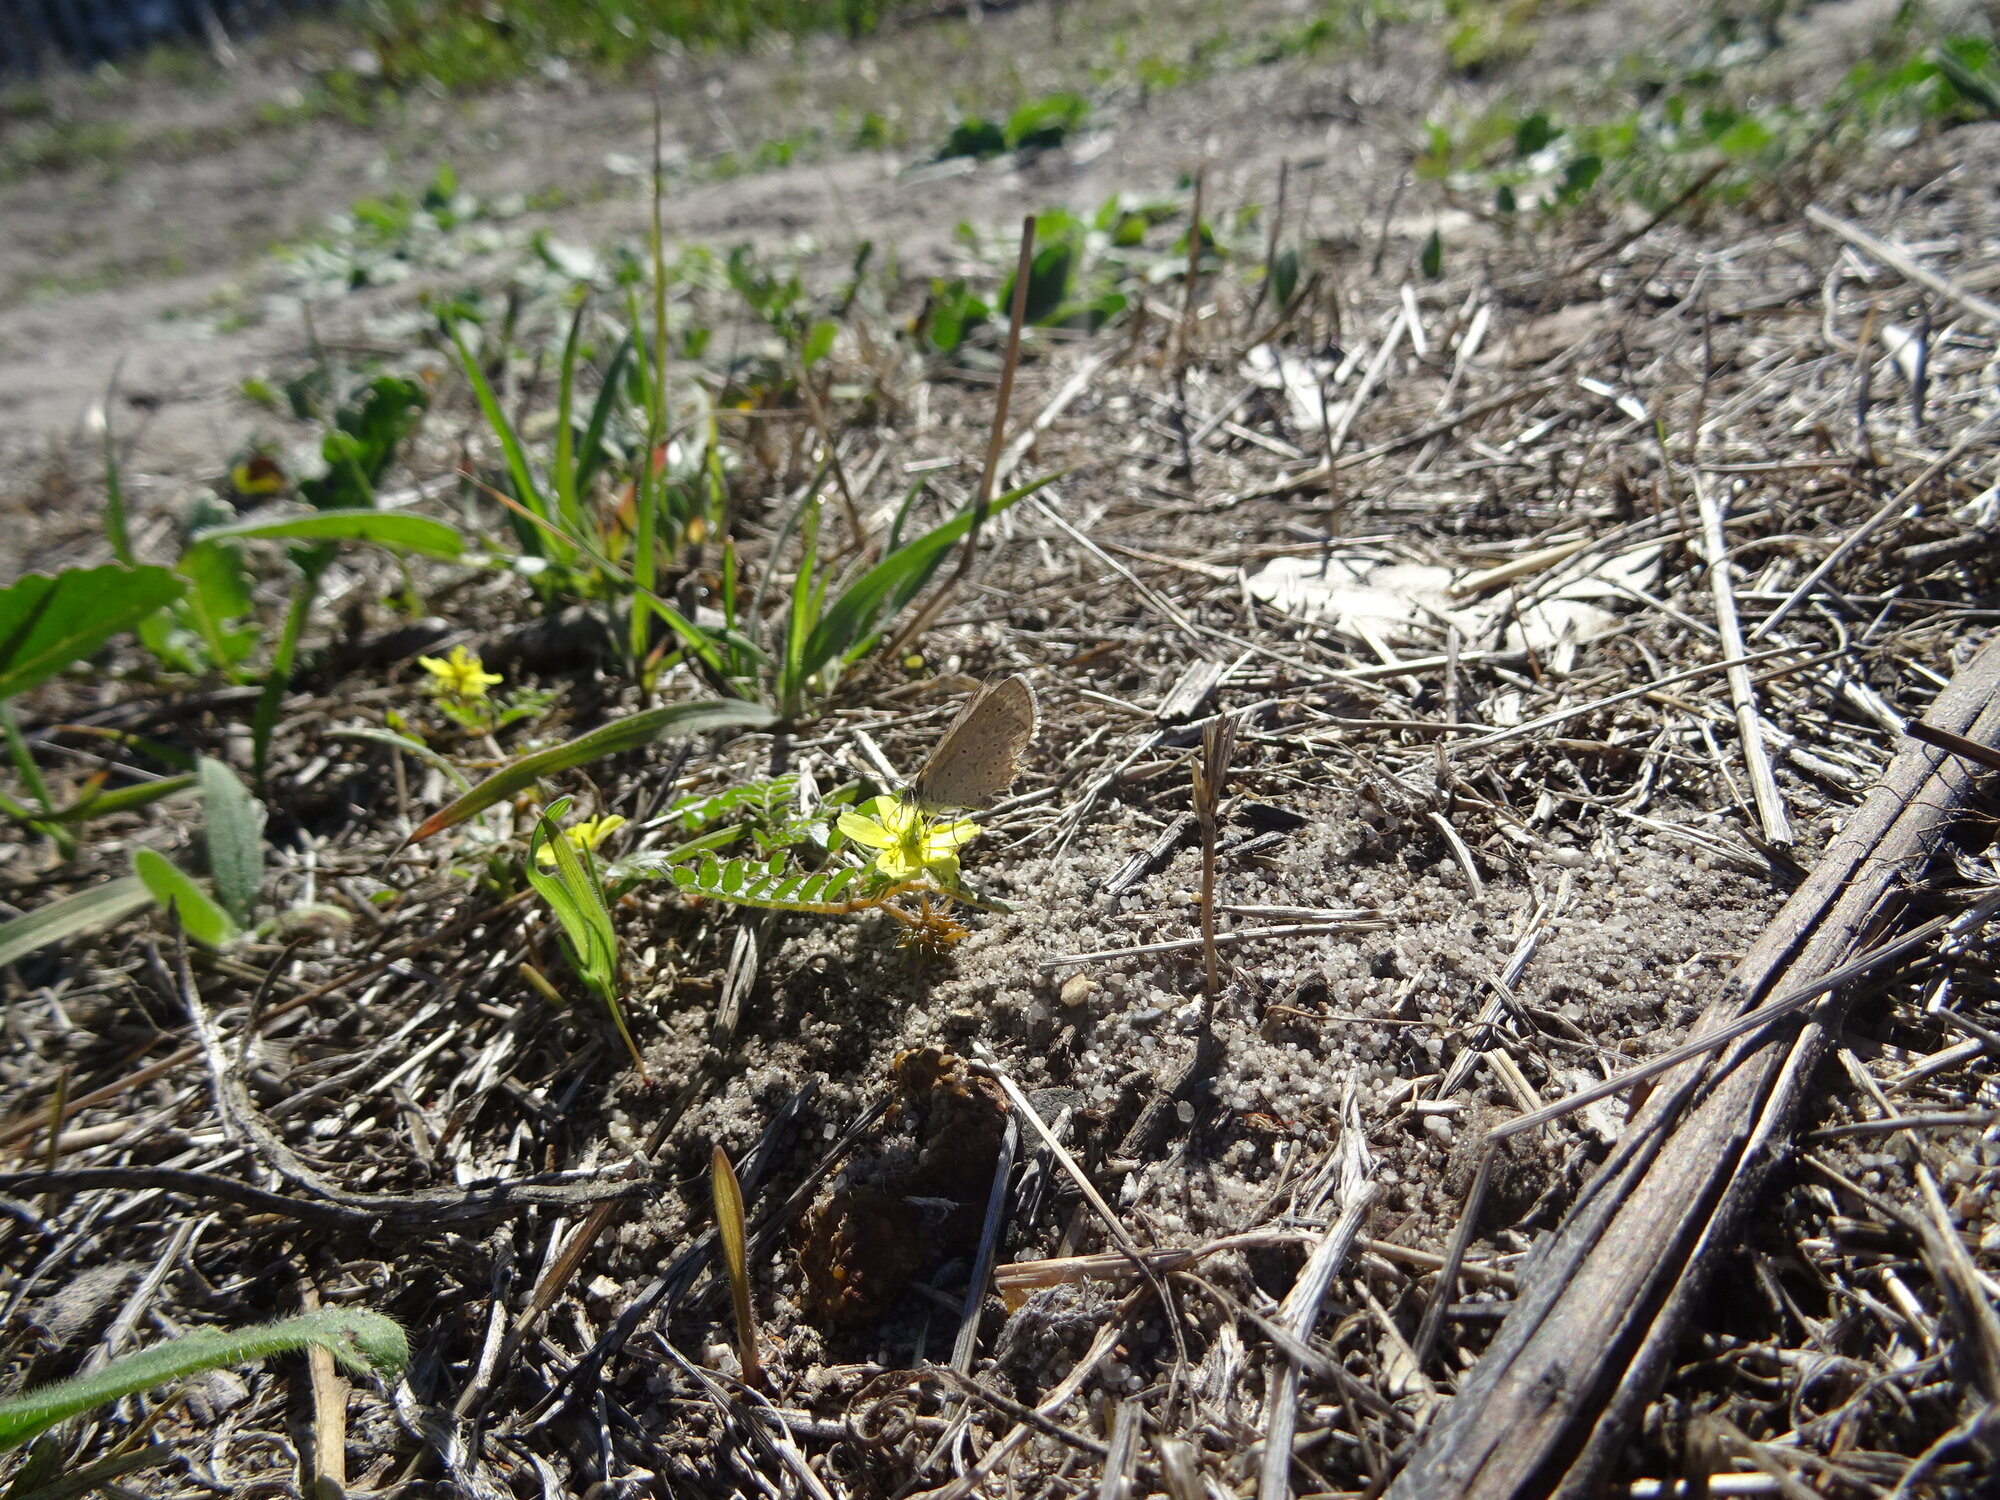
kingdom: Animalia
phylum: Arthropoda
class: Insecta
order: Lepidoptera
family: Lycaenidae
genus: Zizeeria
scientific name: Zizeeria knysna
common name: African grass blue
